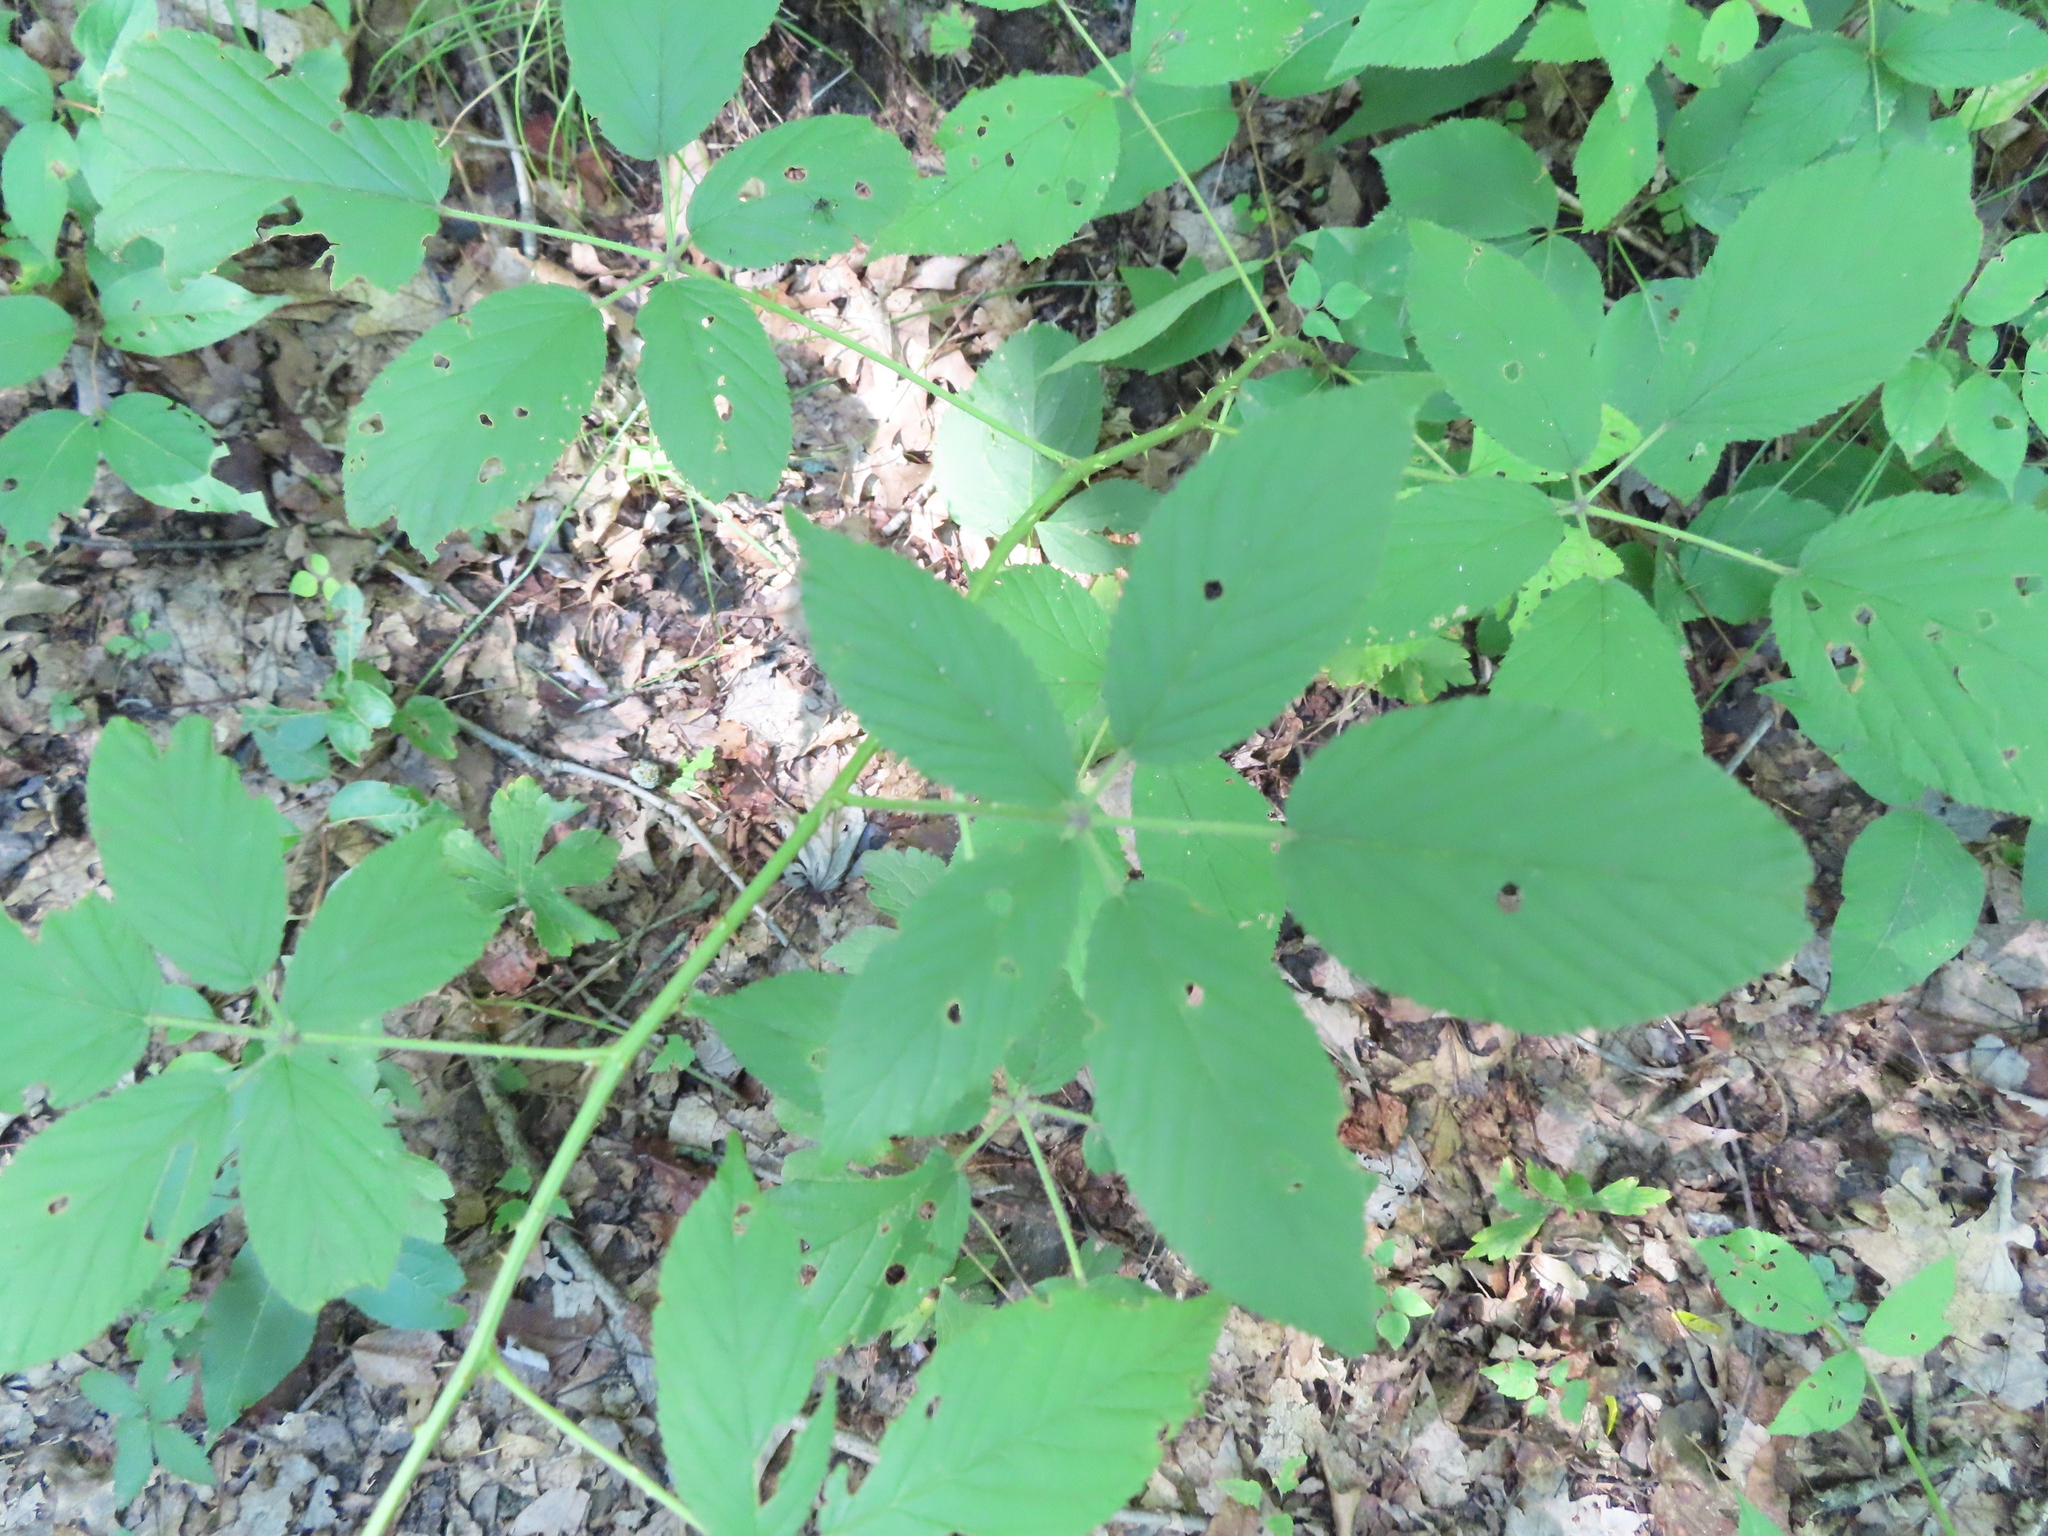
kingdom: Plantae
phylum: Tracheophyta
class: Magnoliopsida
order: Rosales
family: Rosaceae
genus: Rubus
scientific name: Rubus allegheniensis
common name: Allegheny blackberry
